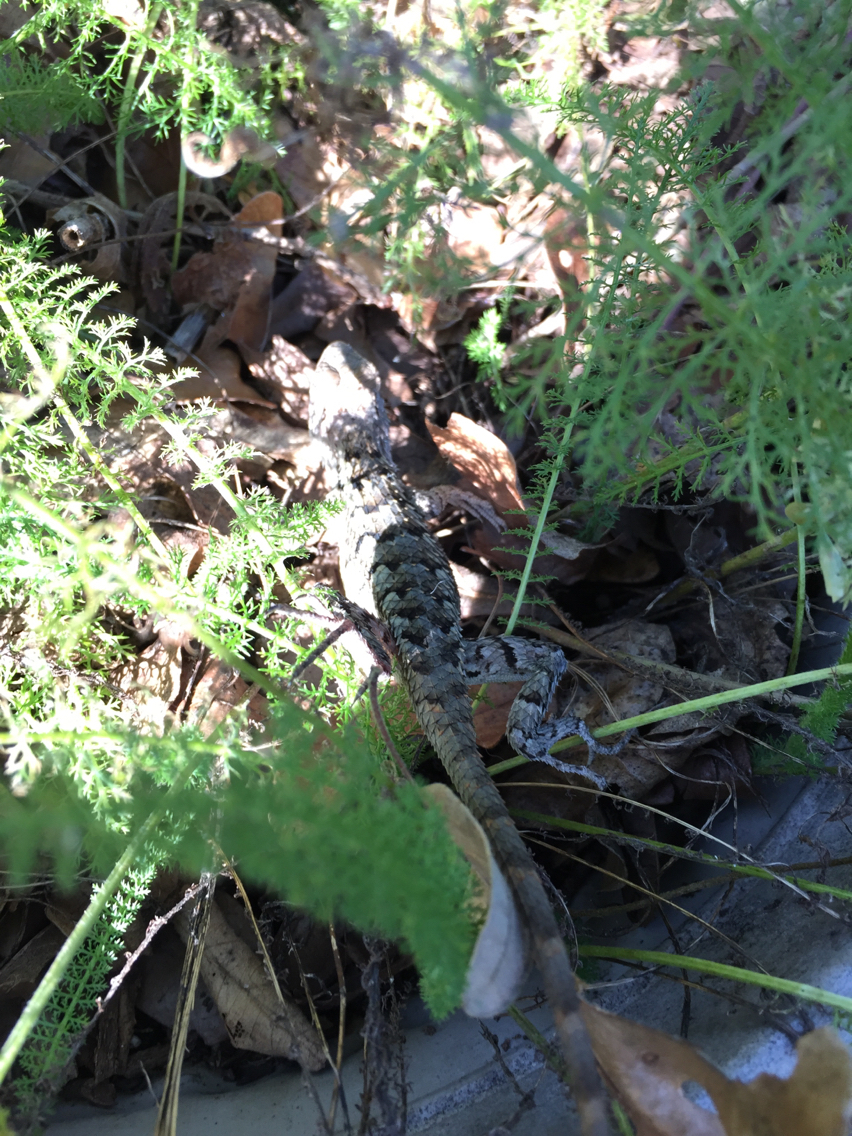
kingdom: Animalia
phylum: Chordata
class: Squamata
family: Phrynosomatidae
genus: Sceloporus
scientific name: Sceloporus olivaceus
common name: Texas spiny lizard
